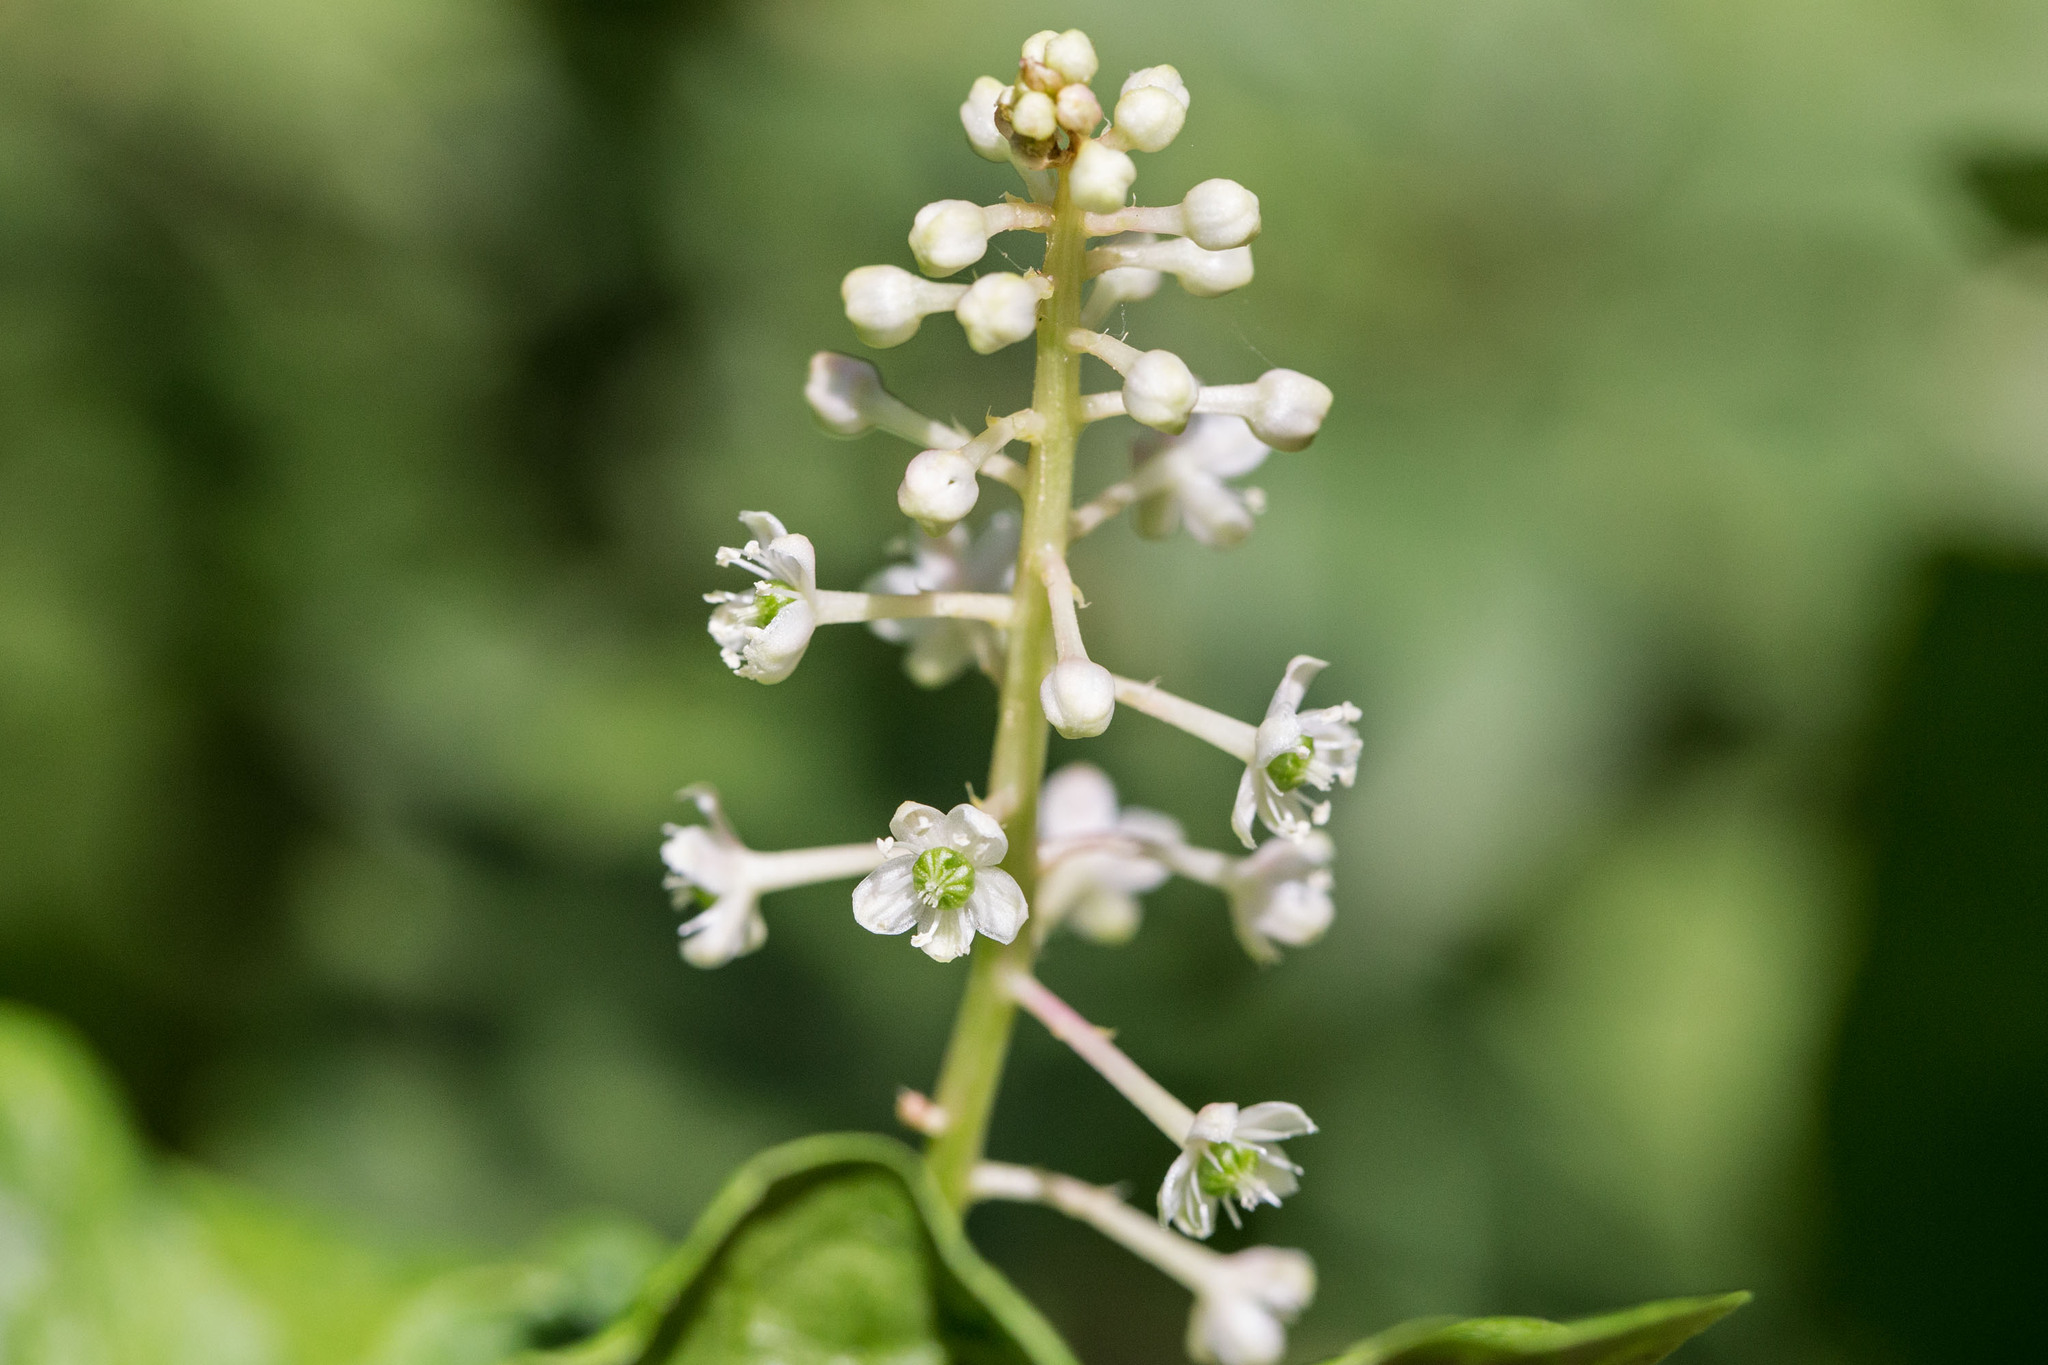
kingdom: Plantae
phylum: Tracheophyta
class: Magnoliopsida
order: Caryophyllales
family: Phytolaccaceae
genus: Phytolacca
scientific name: Phytolacca americana
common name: American pokeweed
